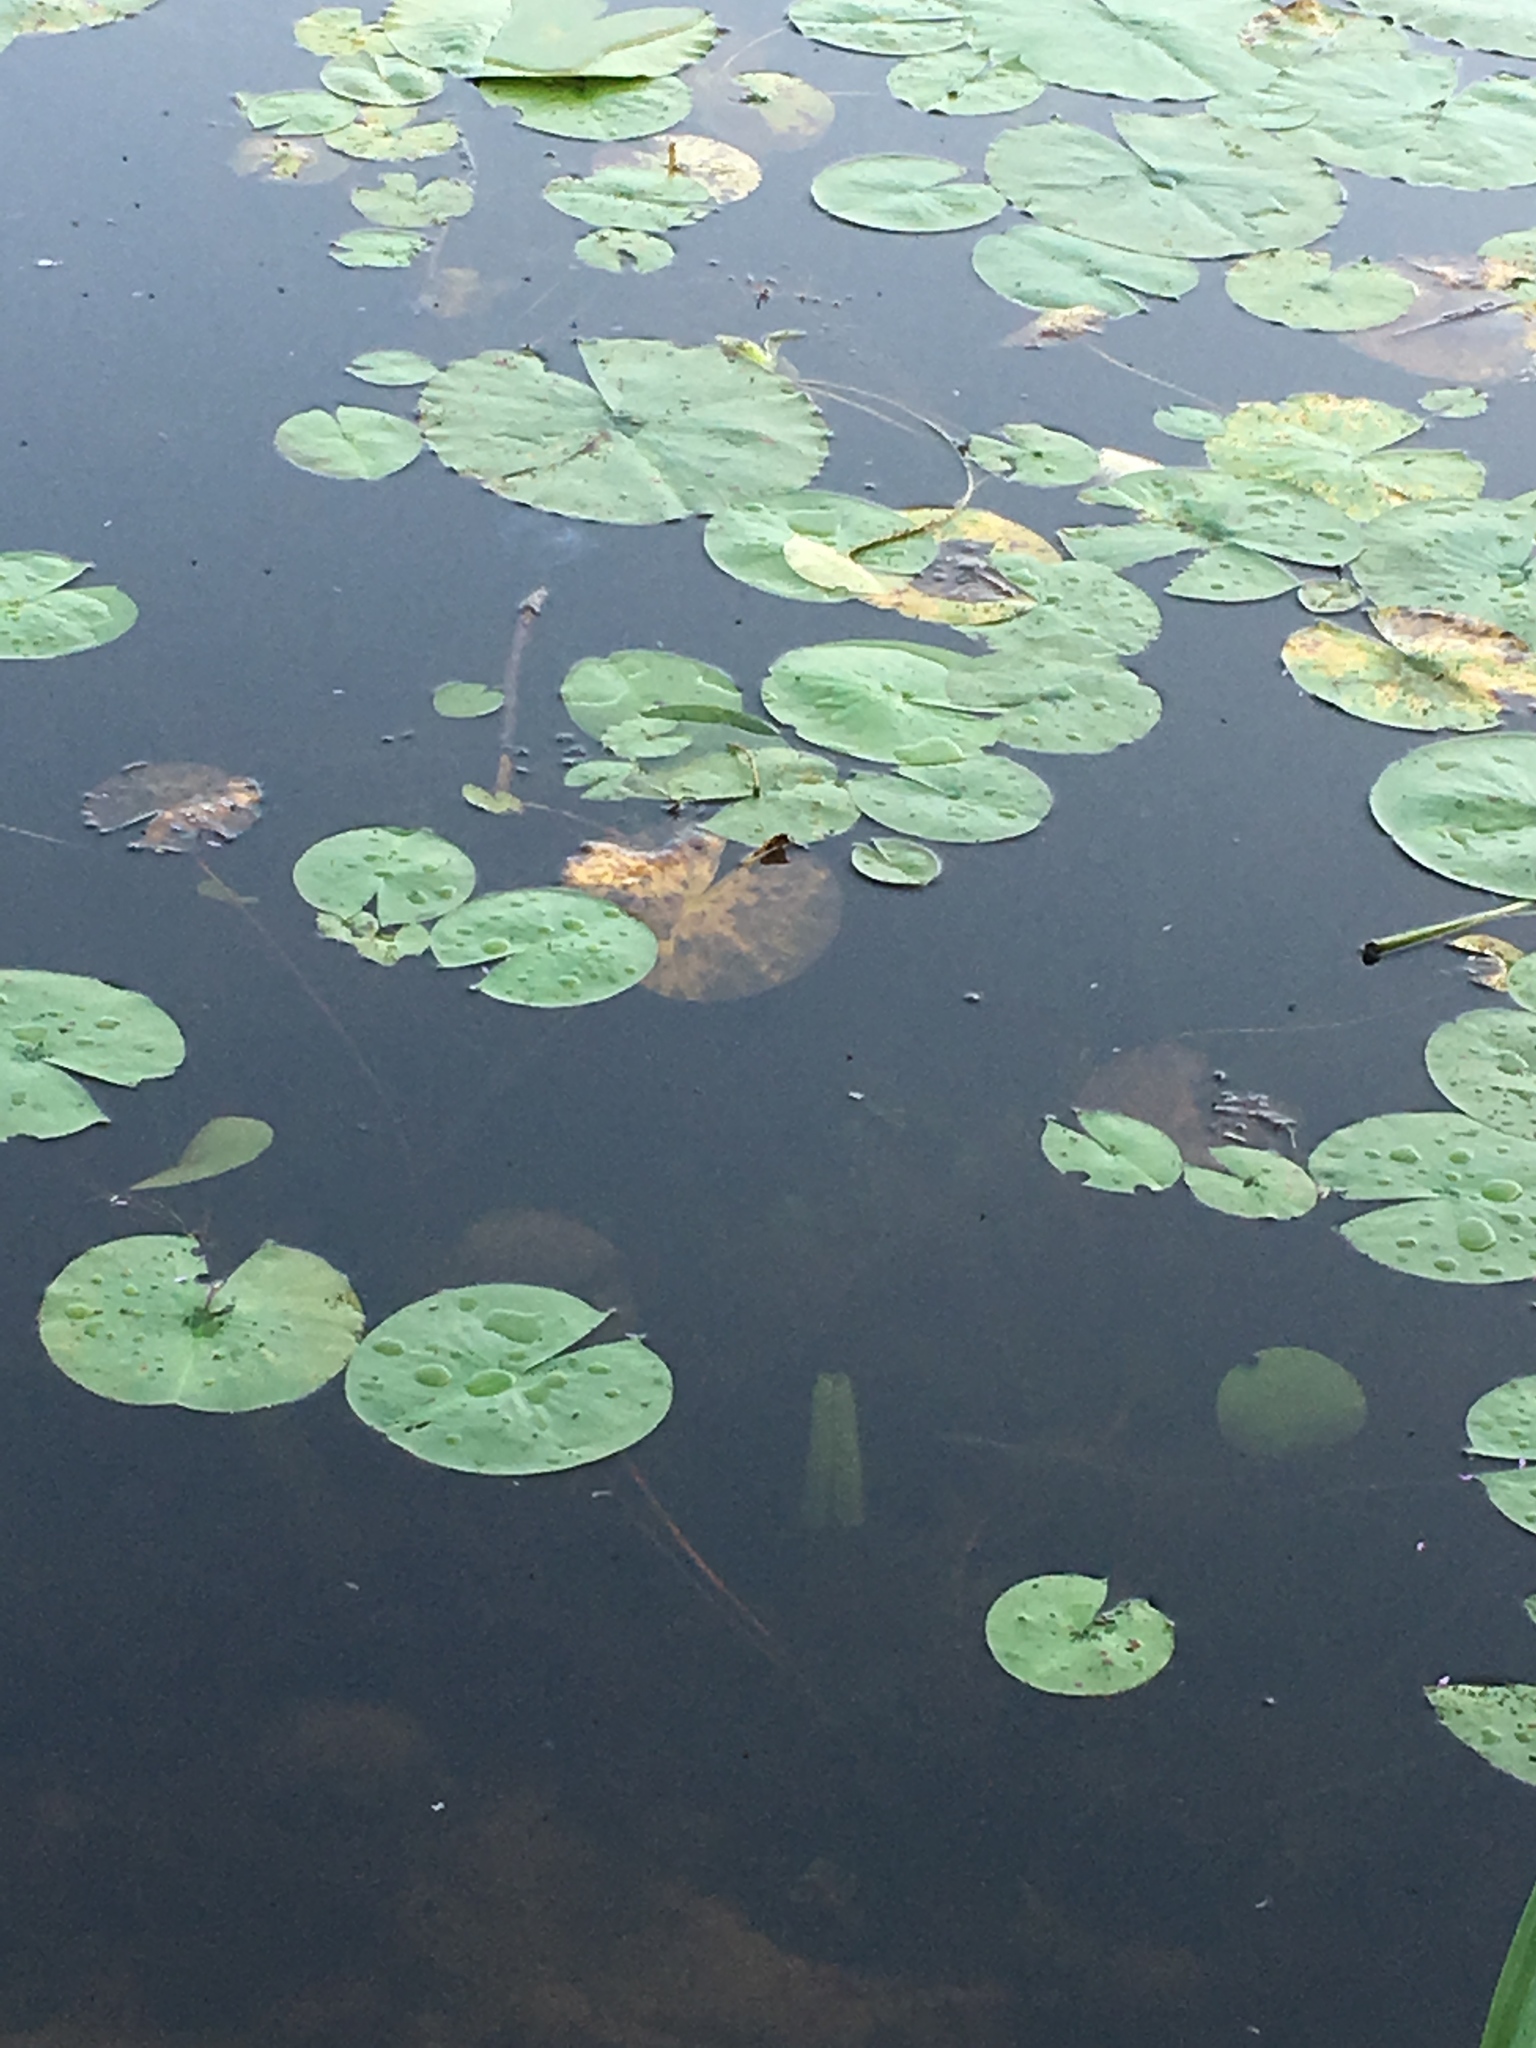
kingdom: Plantae
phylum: Tracheophyta
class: Magnoliopsida
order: Nymphaeales
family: Nymphaeaceae
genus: Nymphaea
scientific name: Nymphaea odorata
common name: Fragrant water-lily
